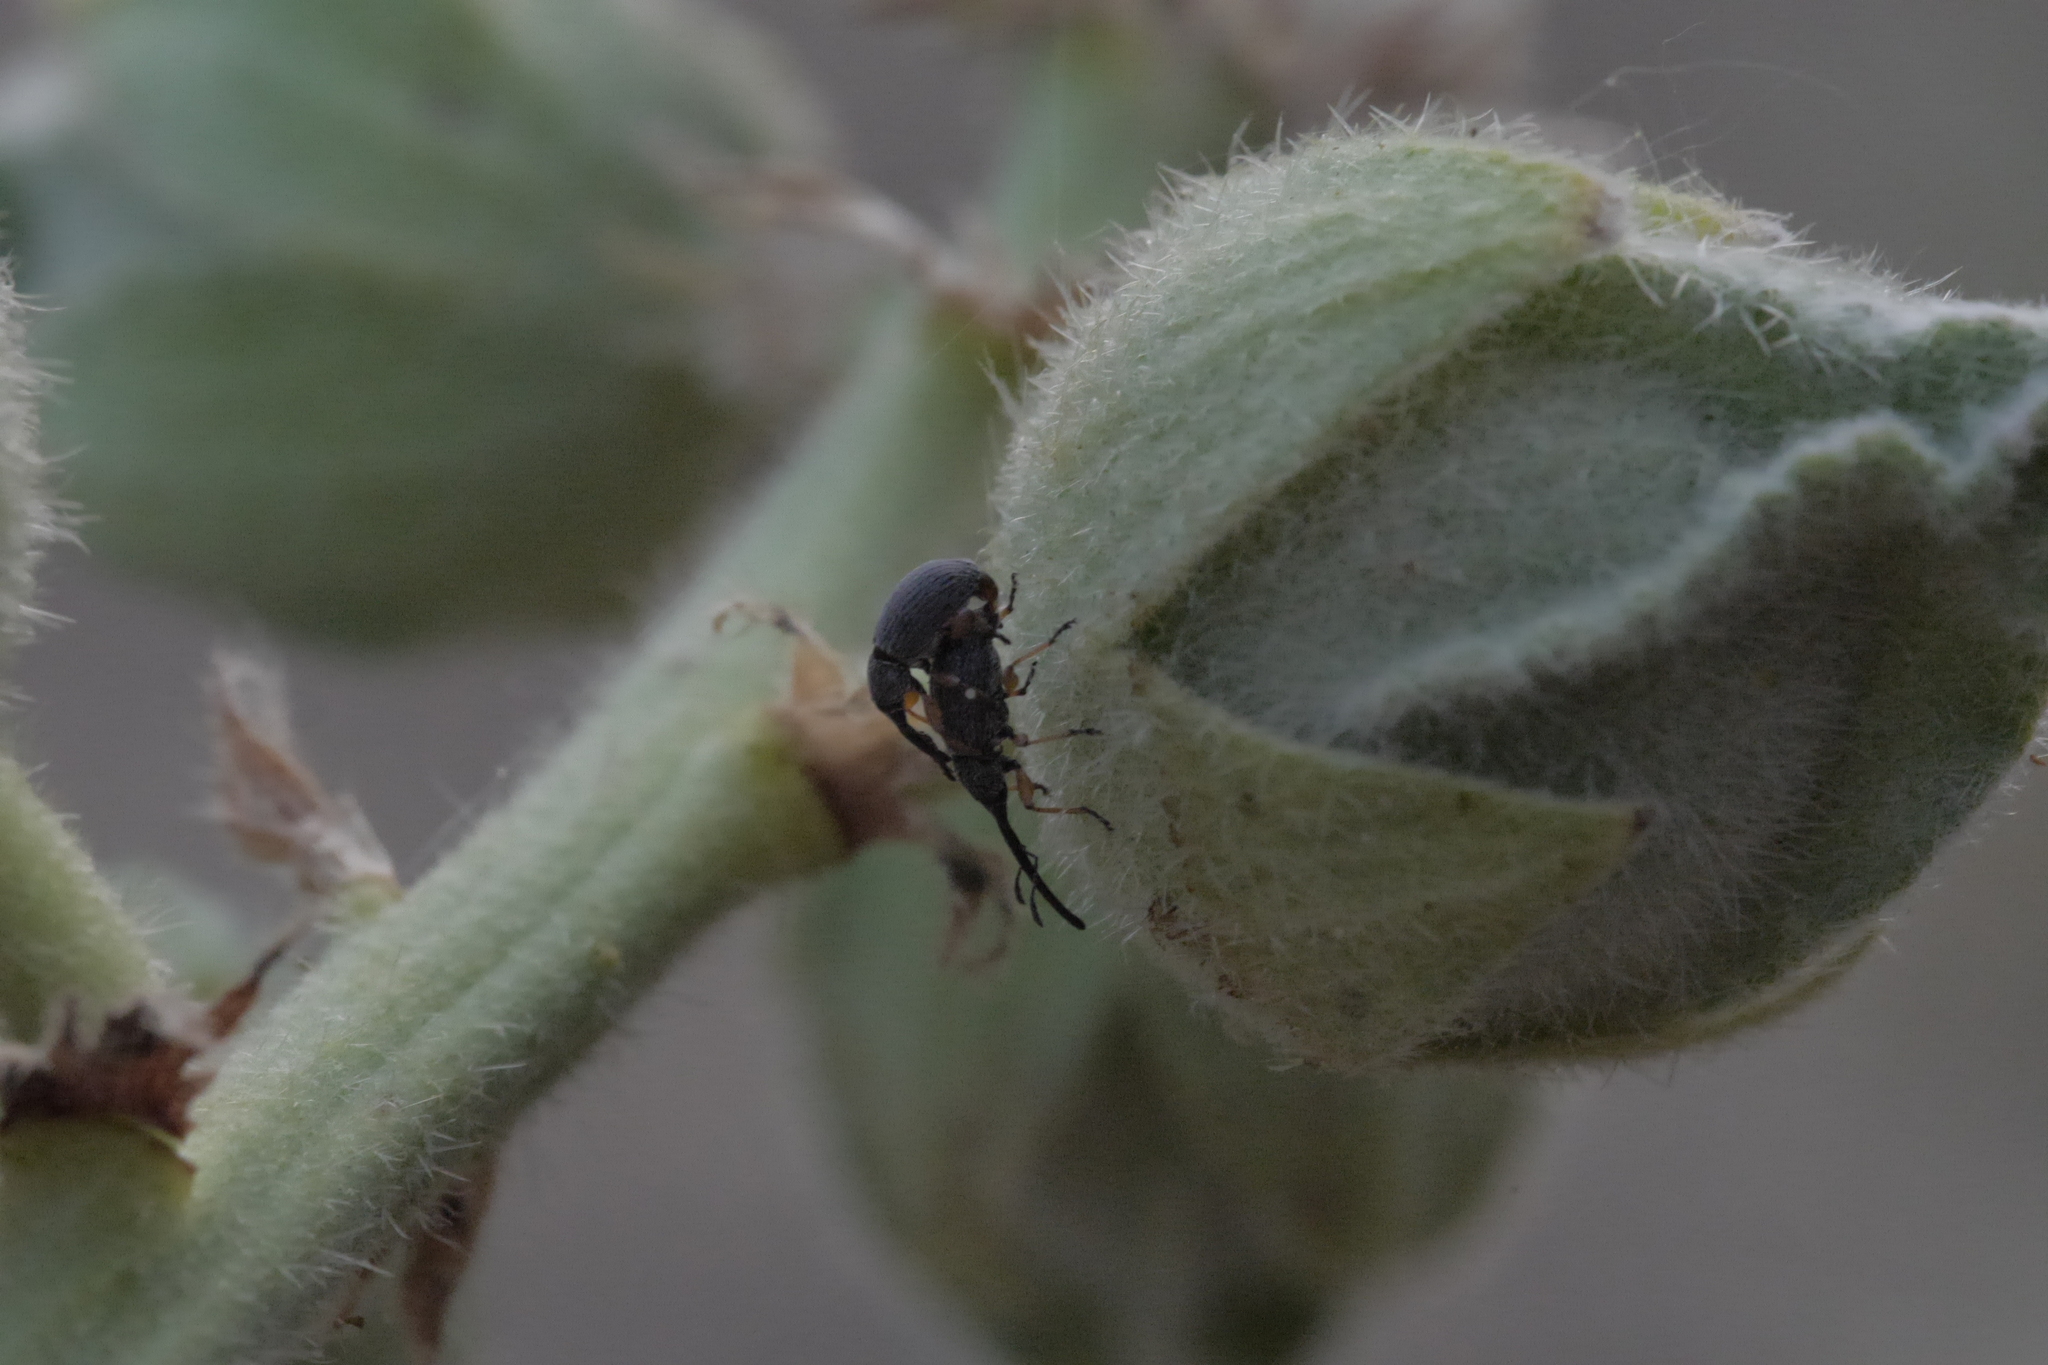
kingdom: Animalia
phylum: Arthropoda
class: Insecta
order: Coleoptera
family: Brentidae
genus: Rhopalapion
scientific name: Rhopalapion longirostre
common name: Hollyhock weevil
